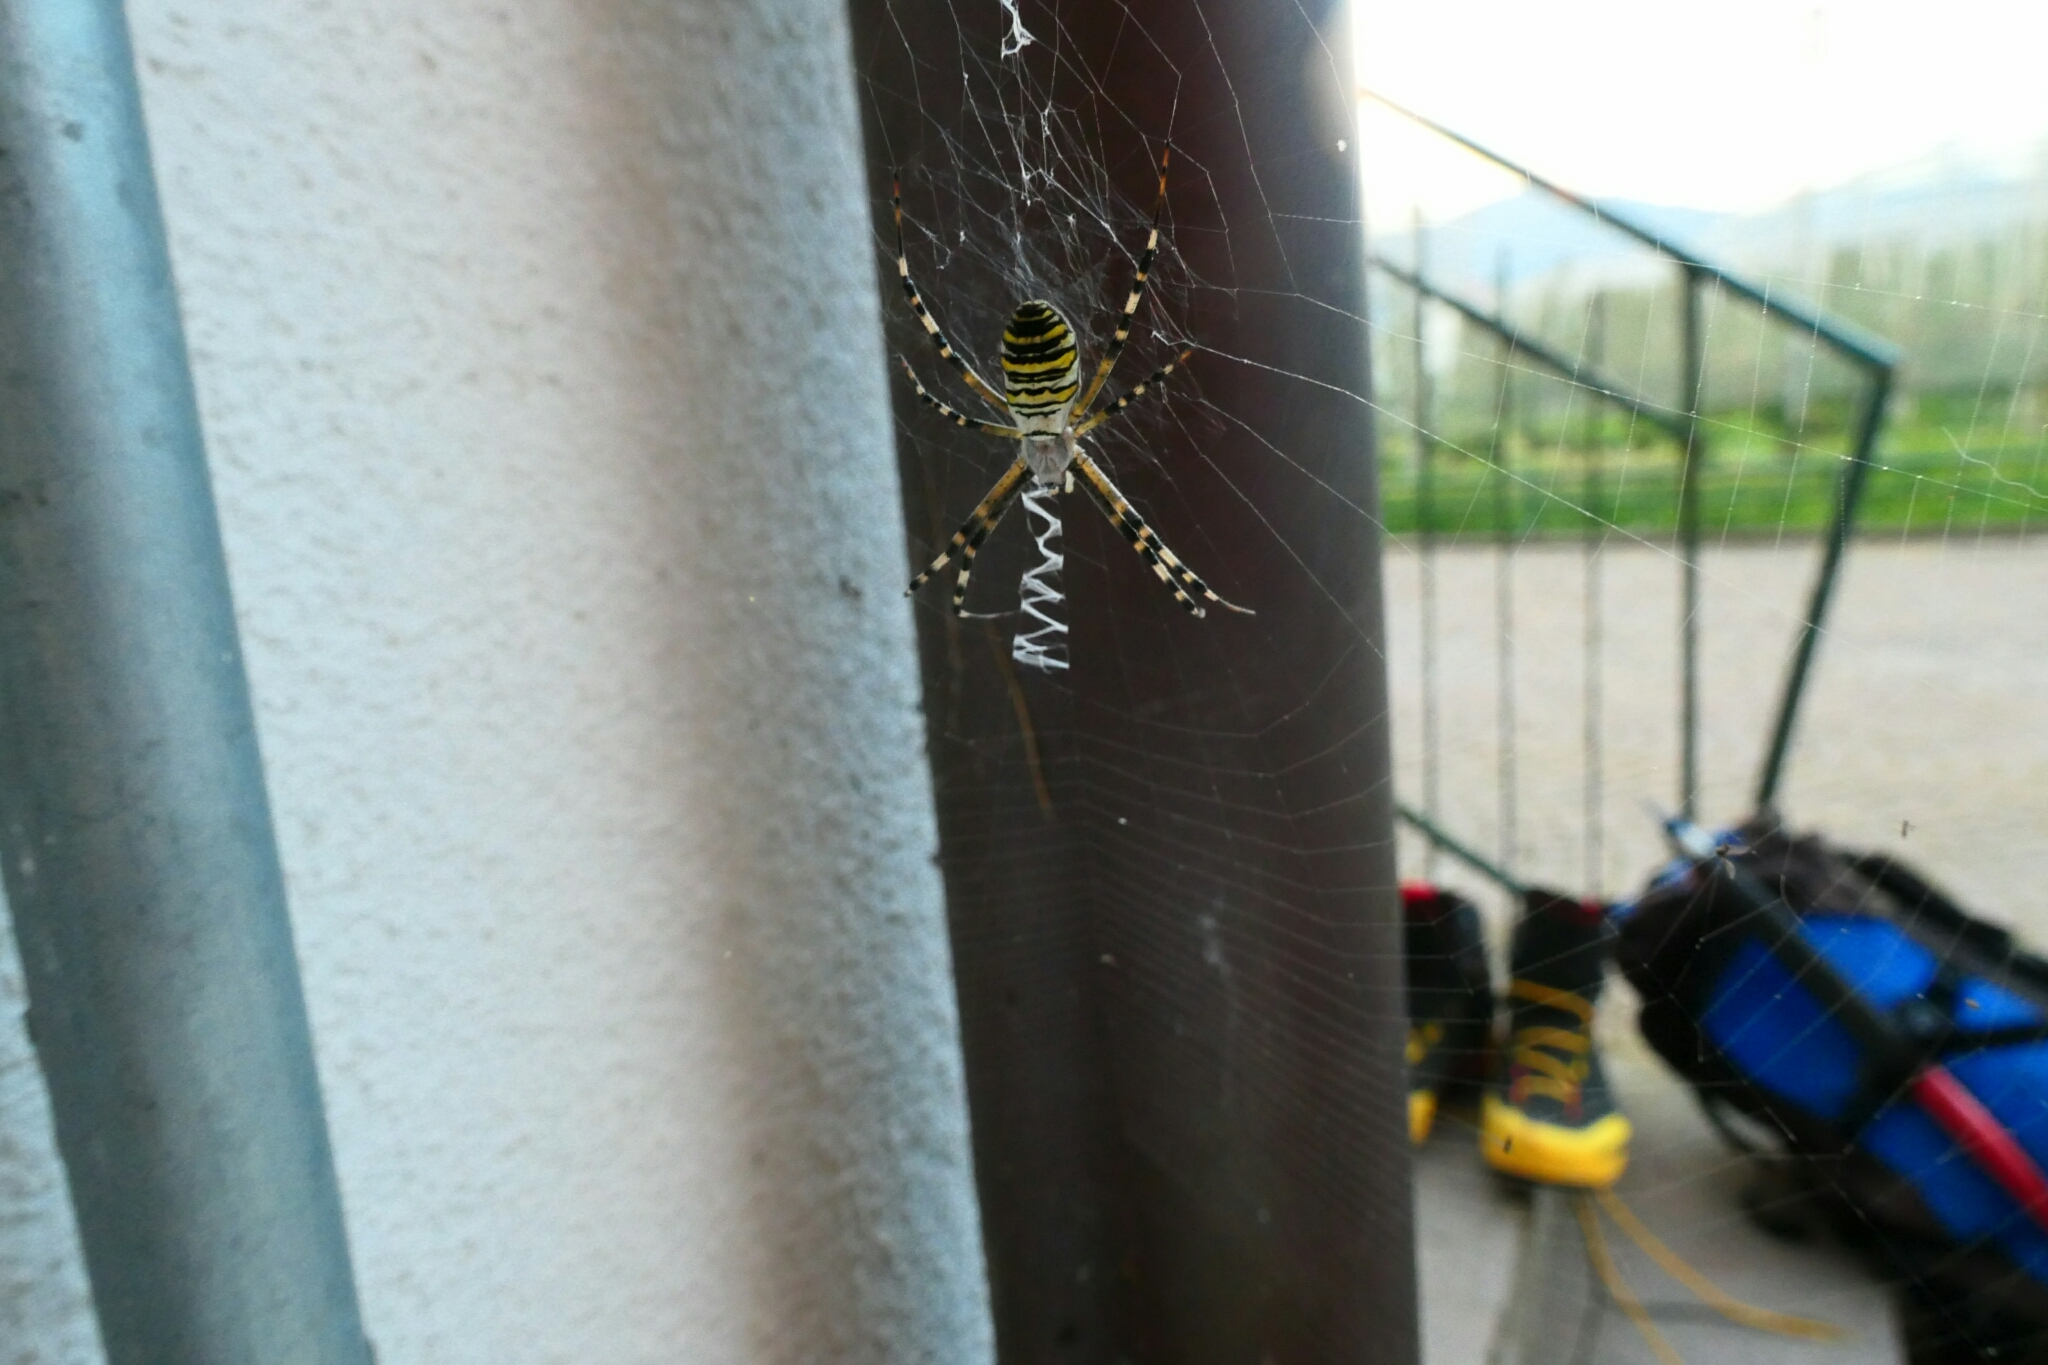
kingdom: Animalia
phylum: Arthropoda
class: Arachnida
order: Araneae
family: Araneidae
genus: Argiope
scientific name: Argiope bruennichi
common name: Wasp spider
